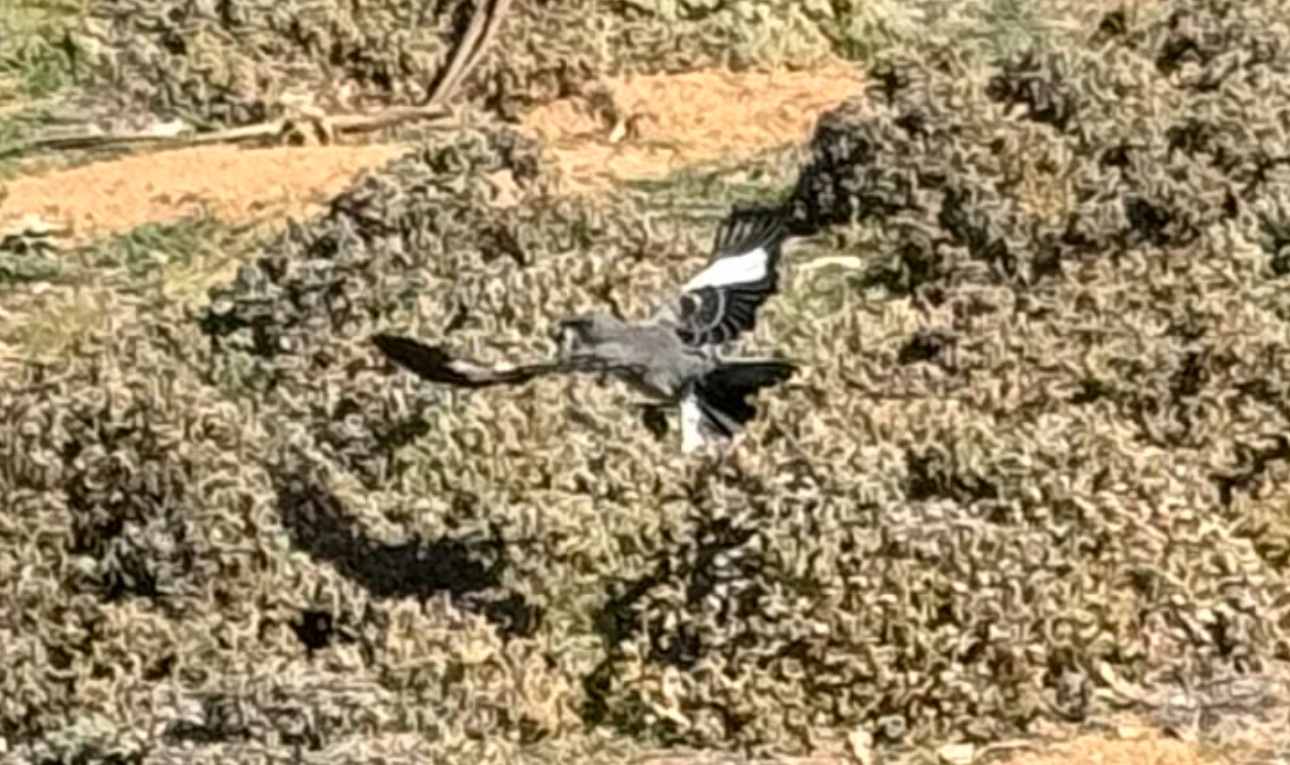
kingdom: Animalia
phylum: Chordata
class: Aves
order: Passeriformes
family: Mimidae
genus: Mimus
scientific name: Mimus polyglottos
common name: Northern mockingbird
